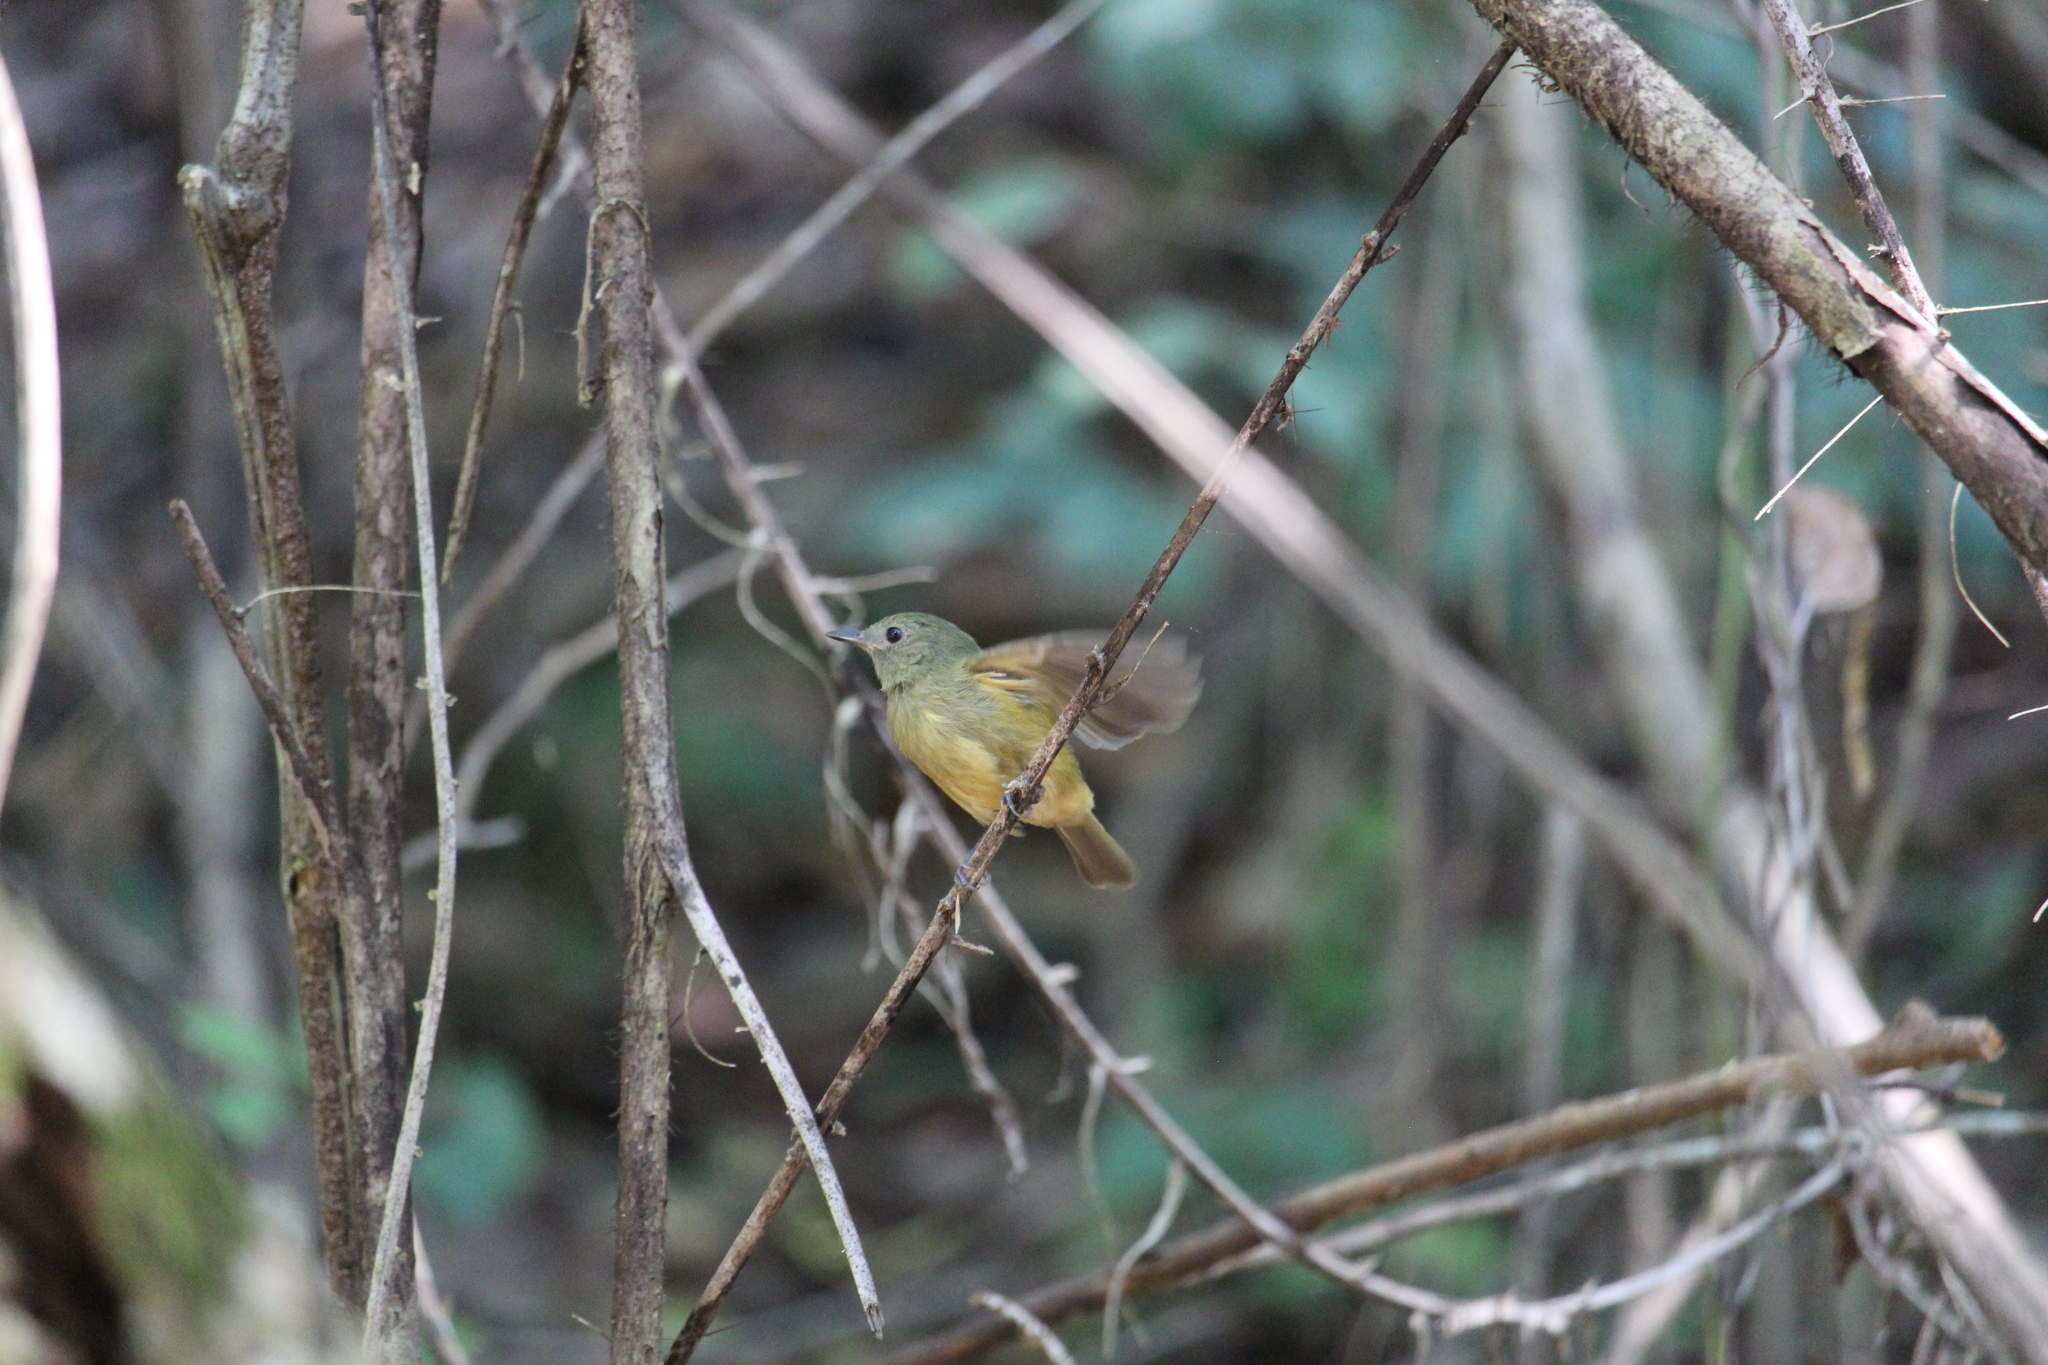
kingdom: Animalia
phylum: Chordata
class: Aves
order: Passeriformes
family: Tyrannidae
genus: Mionectes
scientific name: Mionectes oleagineus
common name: Ochre-bellied flycatcher
